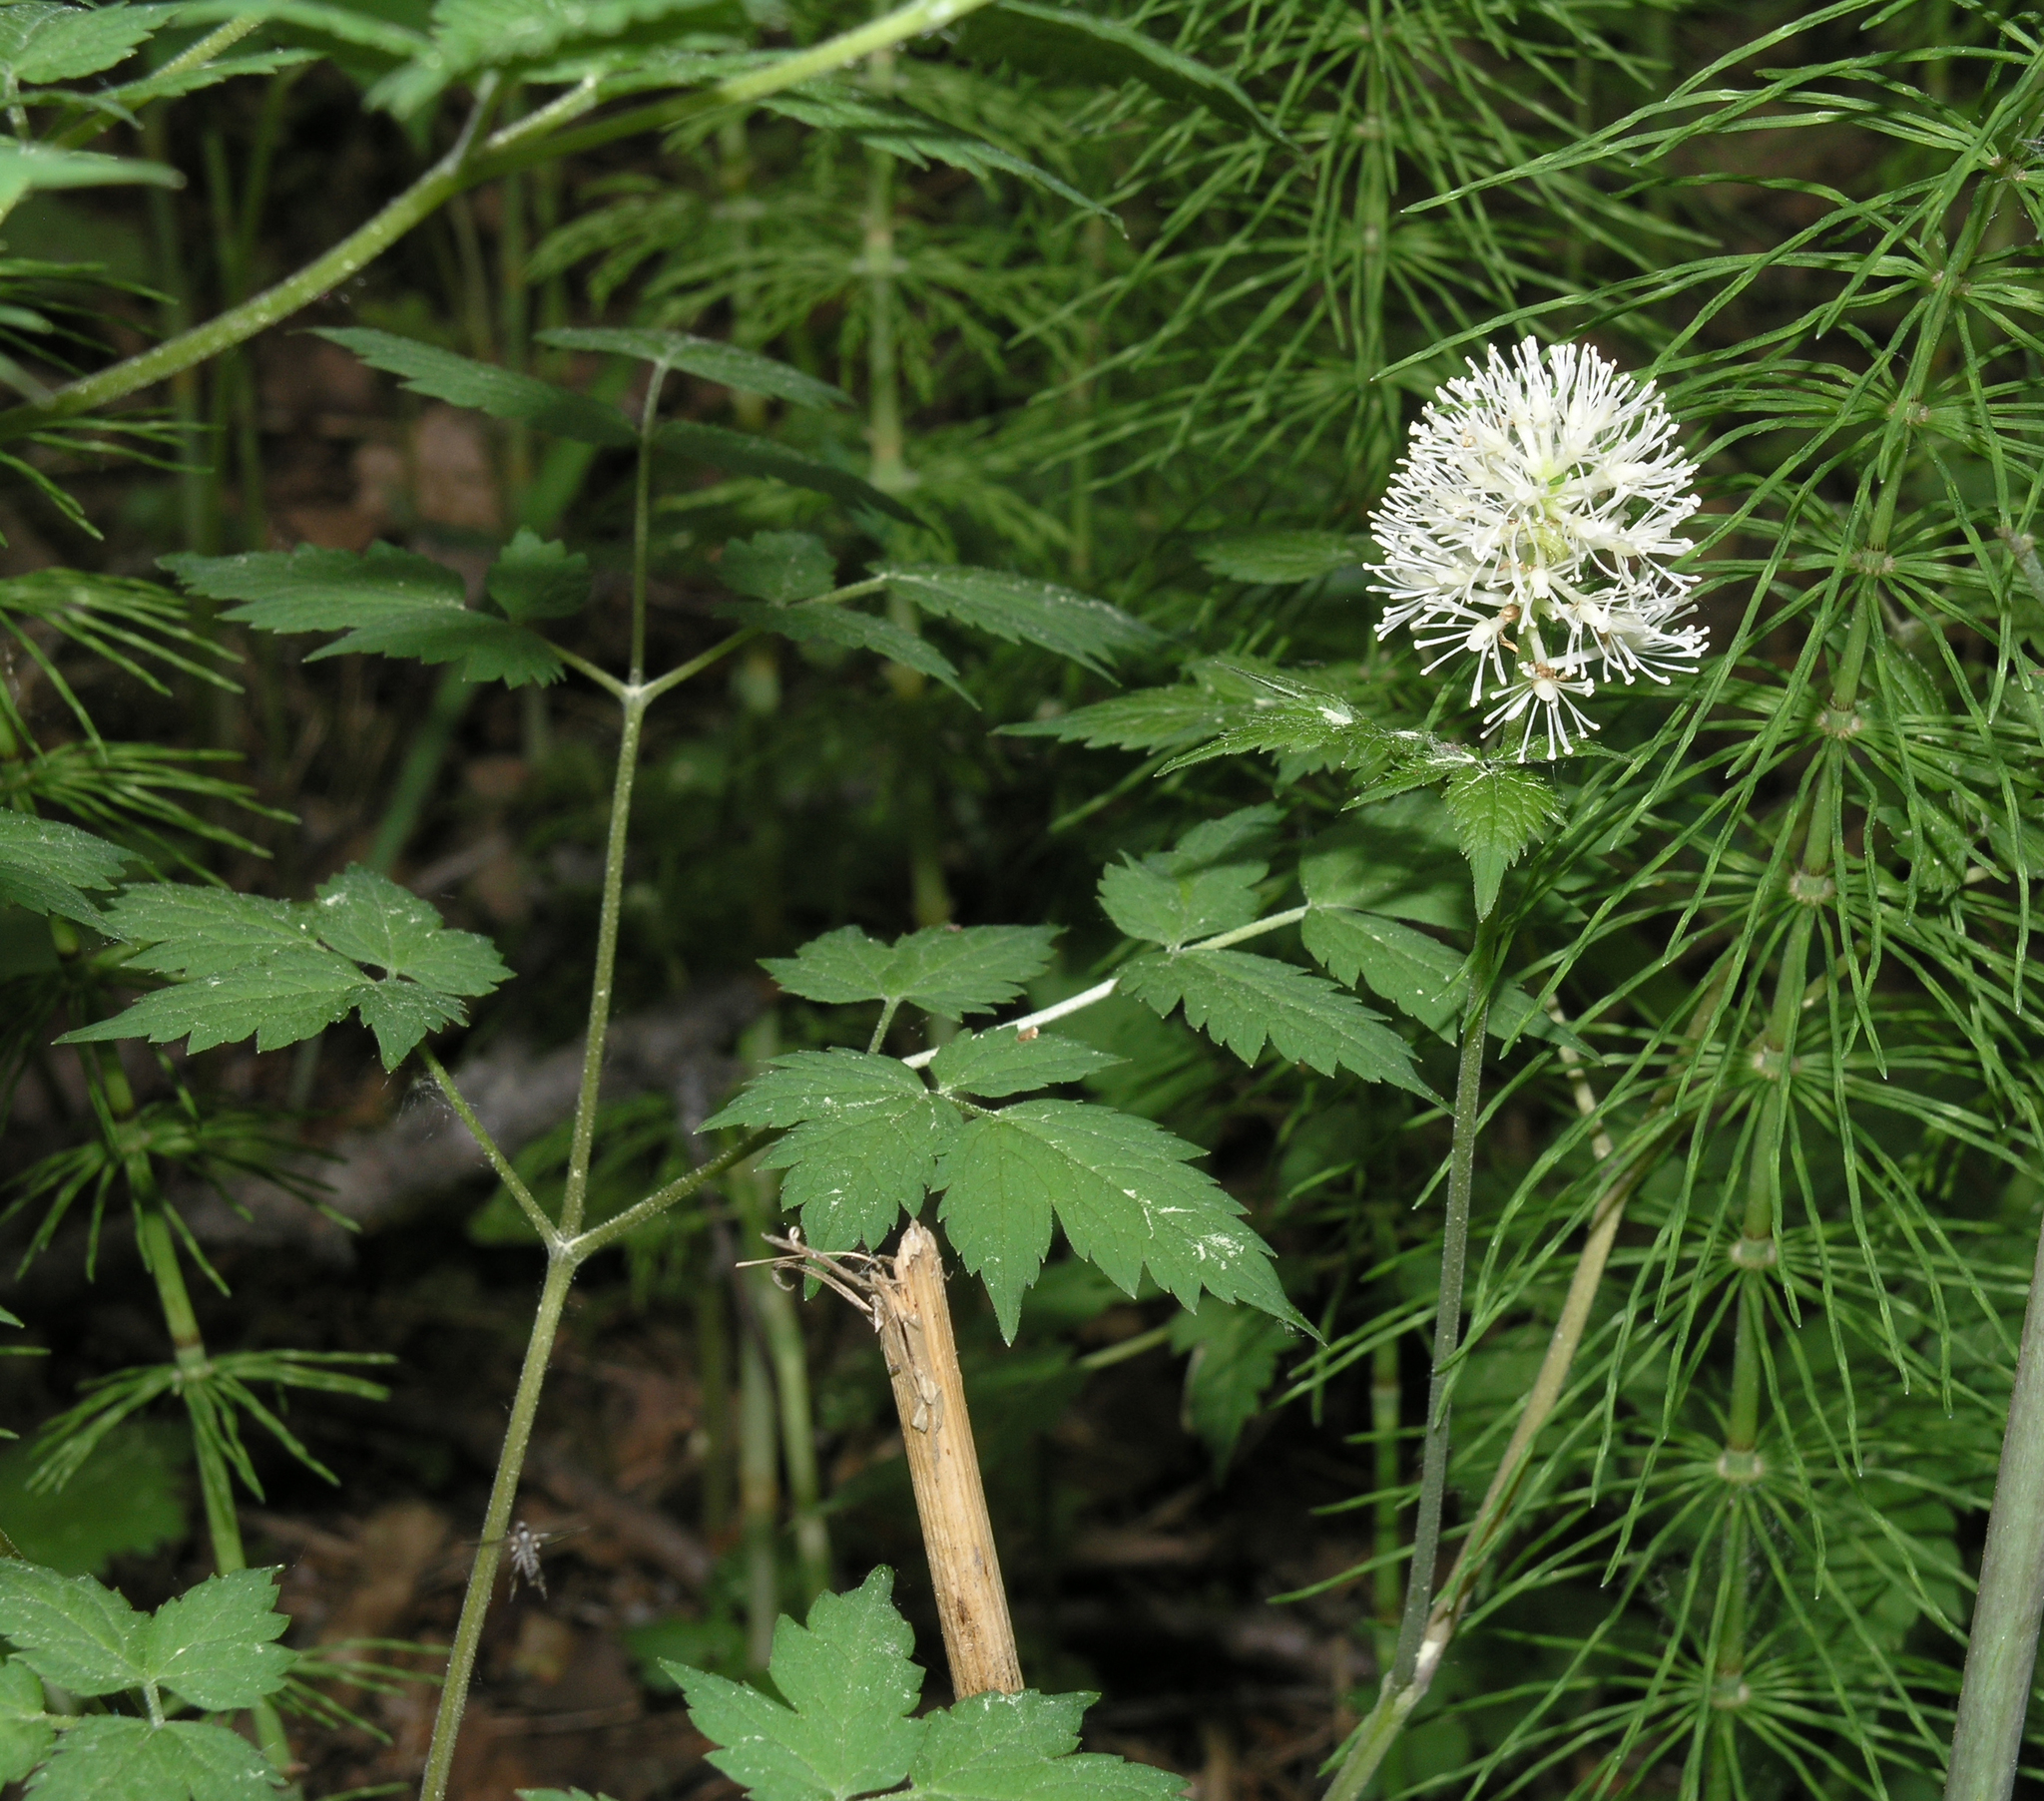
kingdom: Plantae
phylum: Tracheophyta
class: Magnoliopsida
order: Ranunculales
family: Ranunculaceae
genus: Actaea
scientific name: Actaea erythrocarpa
